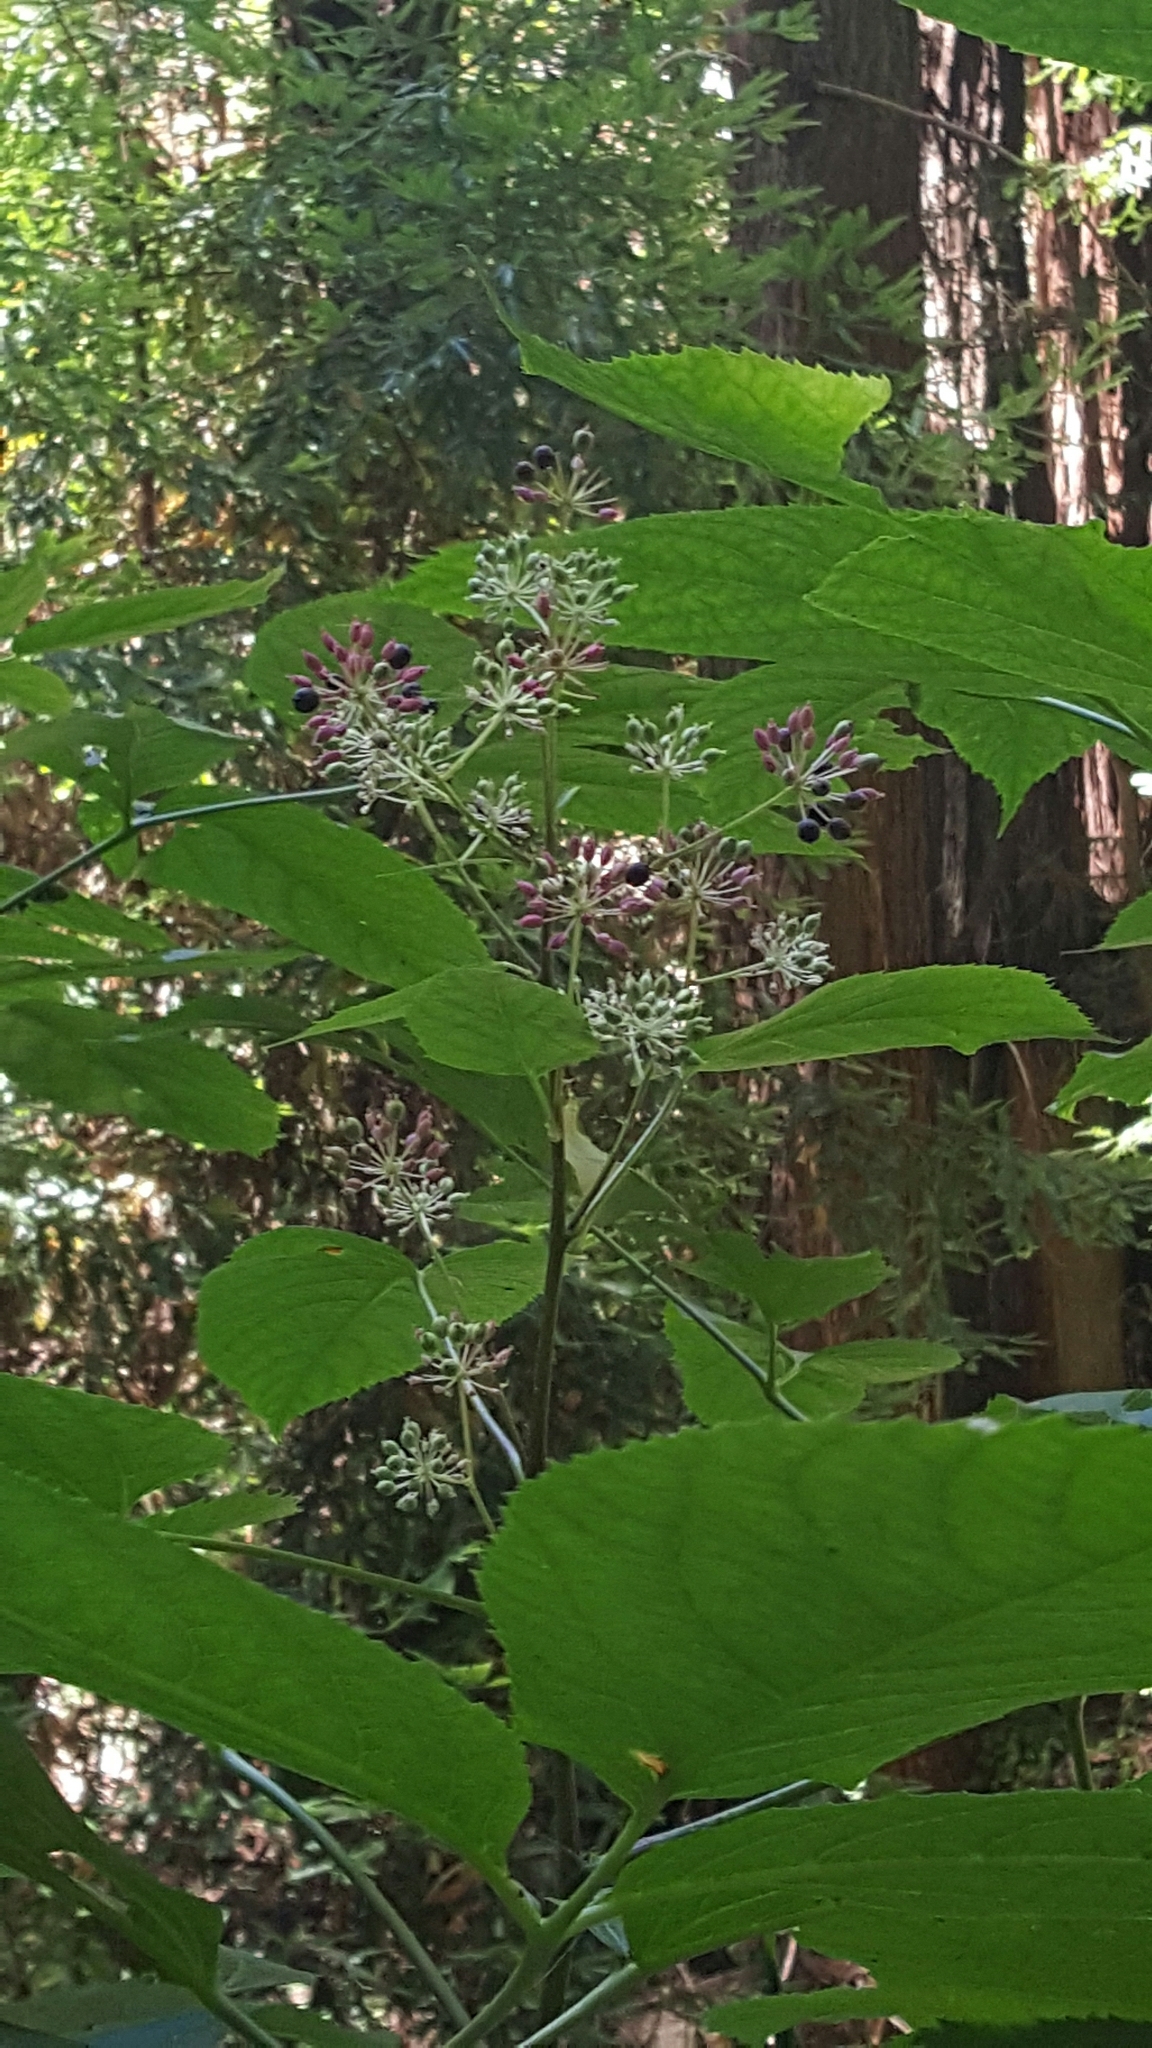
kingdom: Plantae
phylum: Tracheophyta
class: Magnoliopsida
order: Apiales
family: Araliaceae
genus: Aralia
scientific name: Aralia californica
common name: California-ginseng
